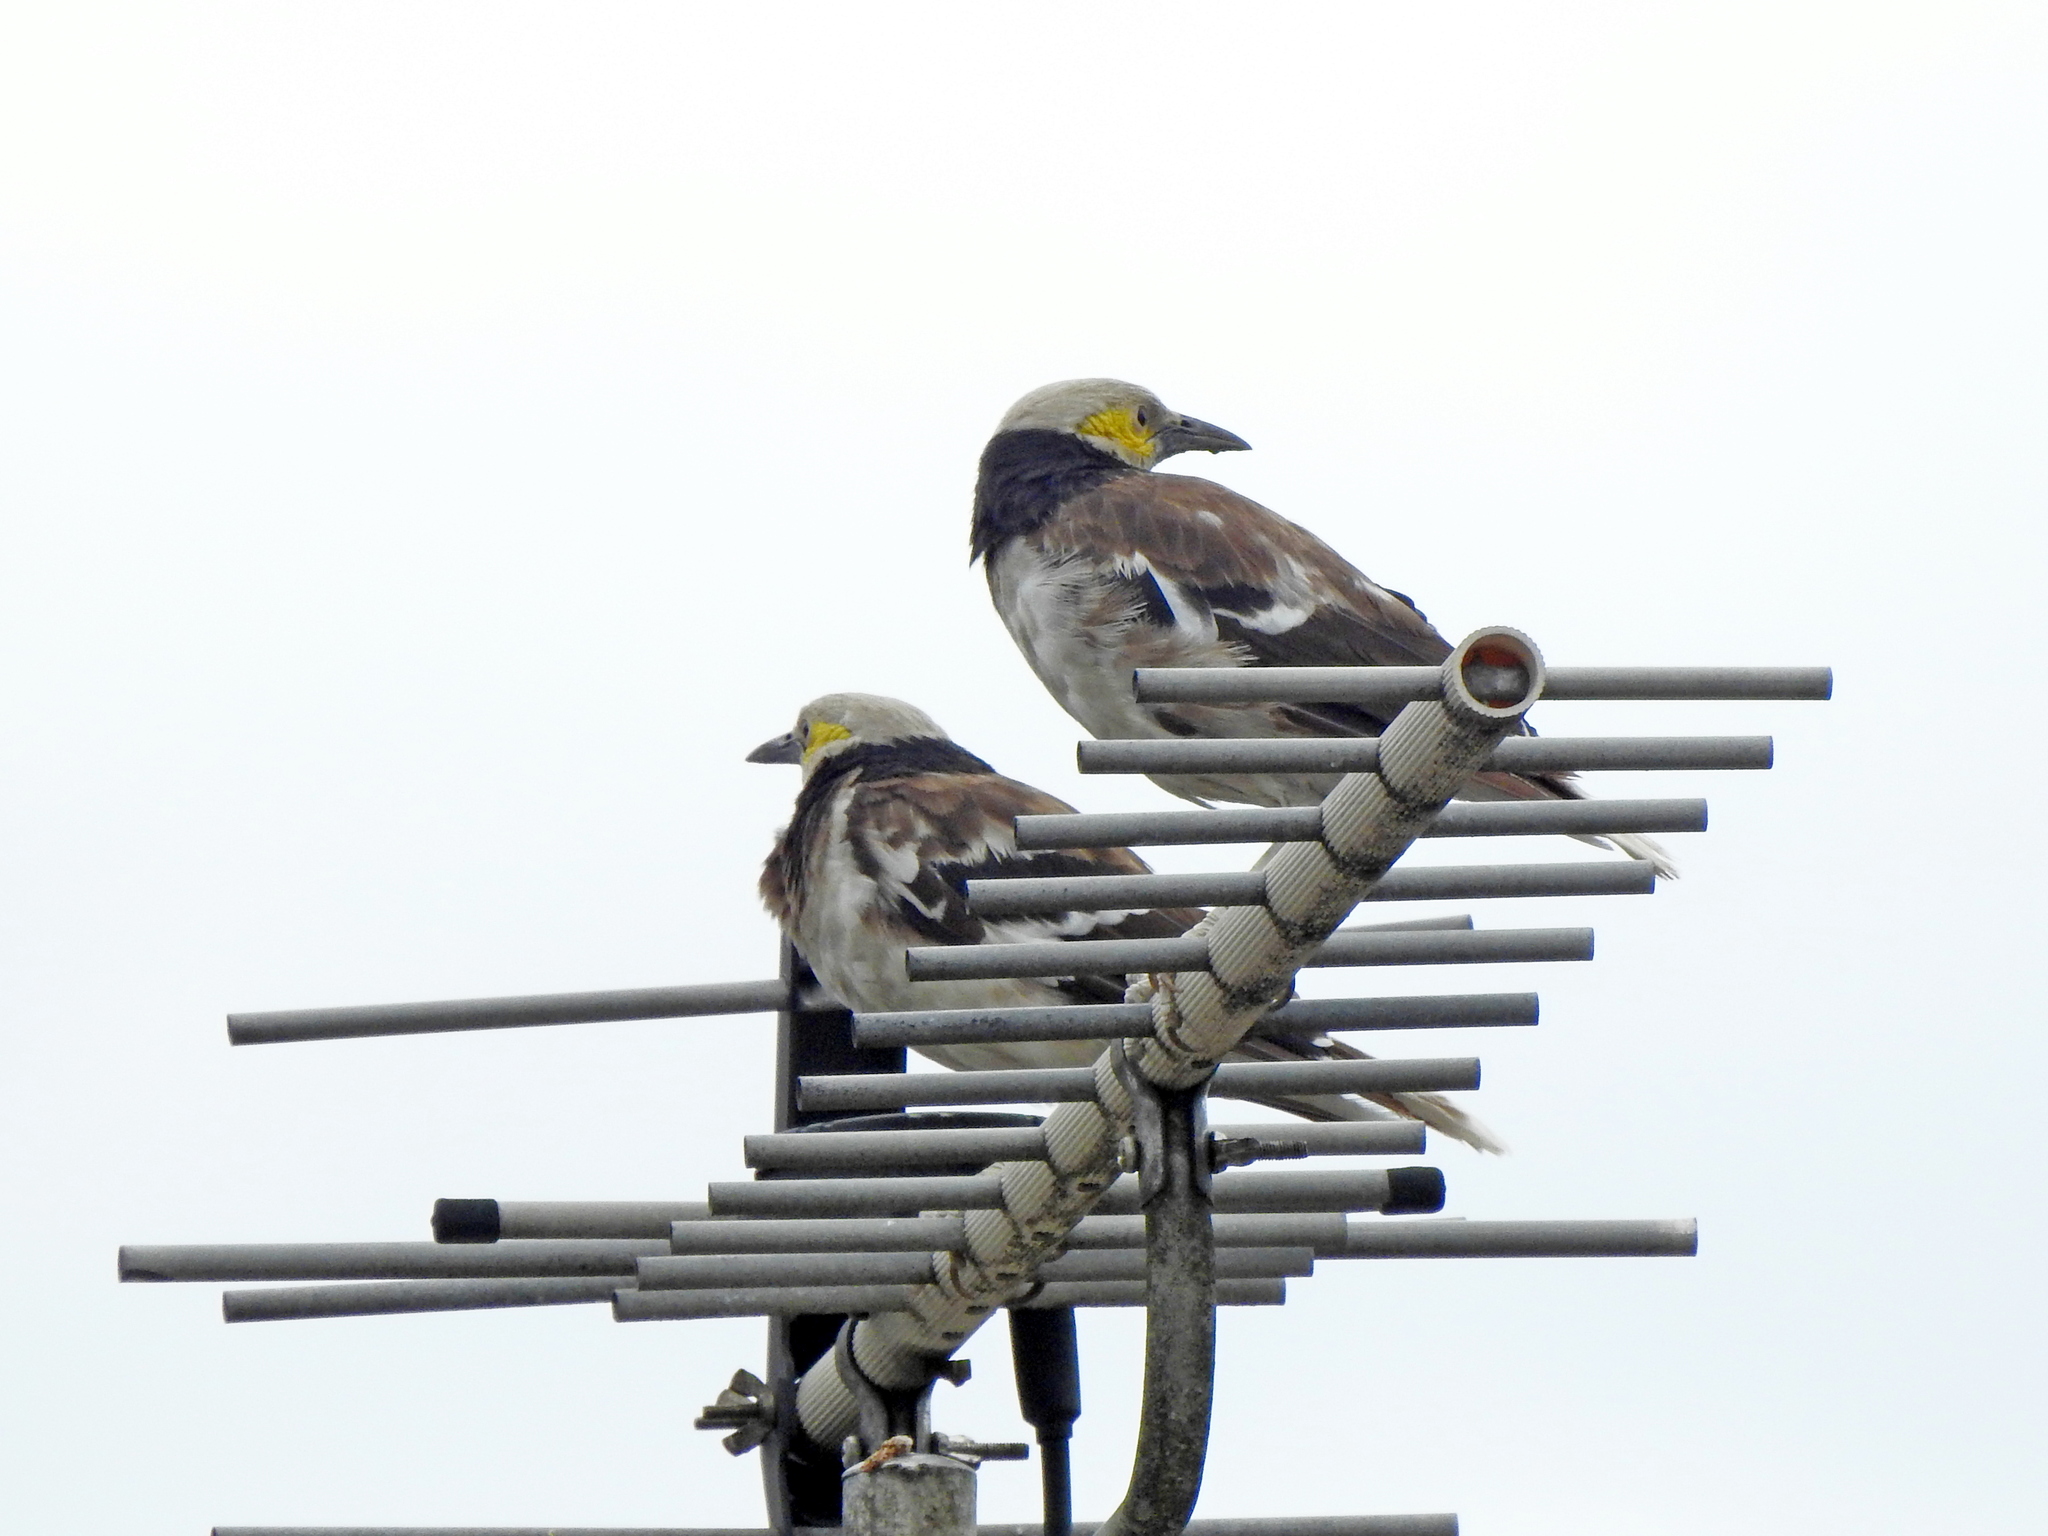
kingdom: Animalia
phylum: Chordata
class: Aves
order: Passeriformes
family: Sturnidae
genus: Gracupica
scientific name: Gracupica nigricollis
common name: Black-collared starling
